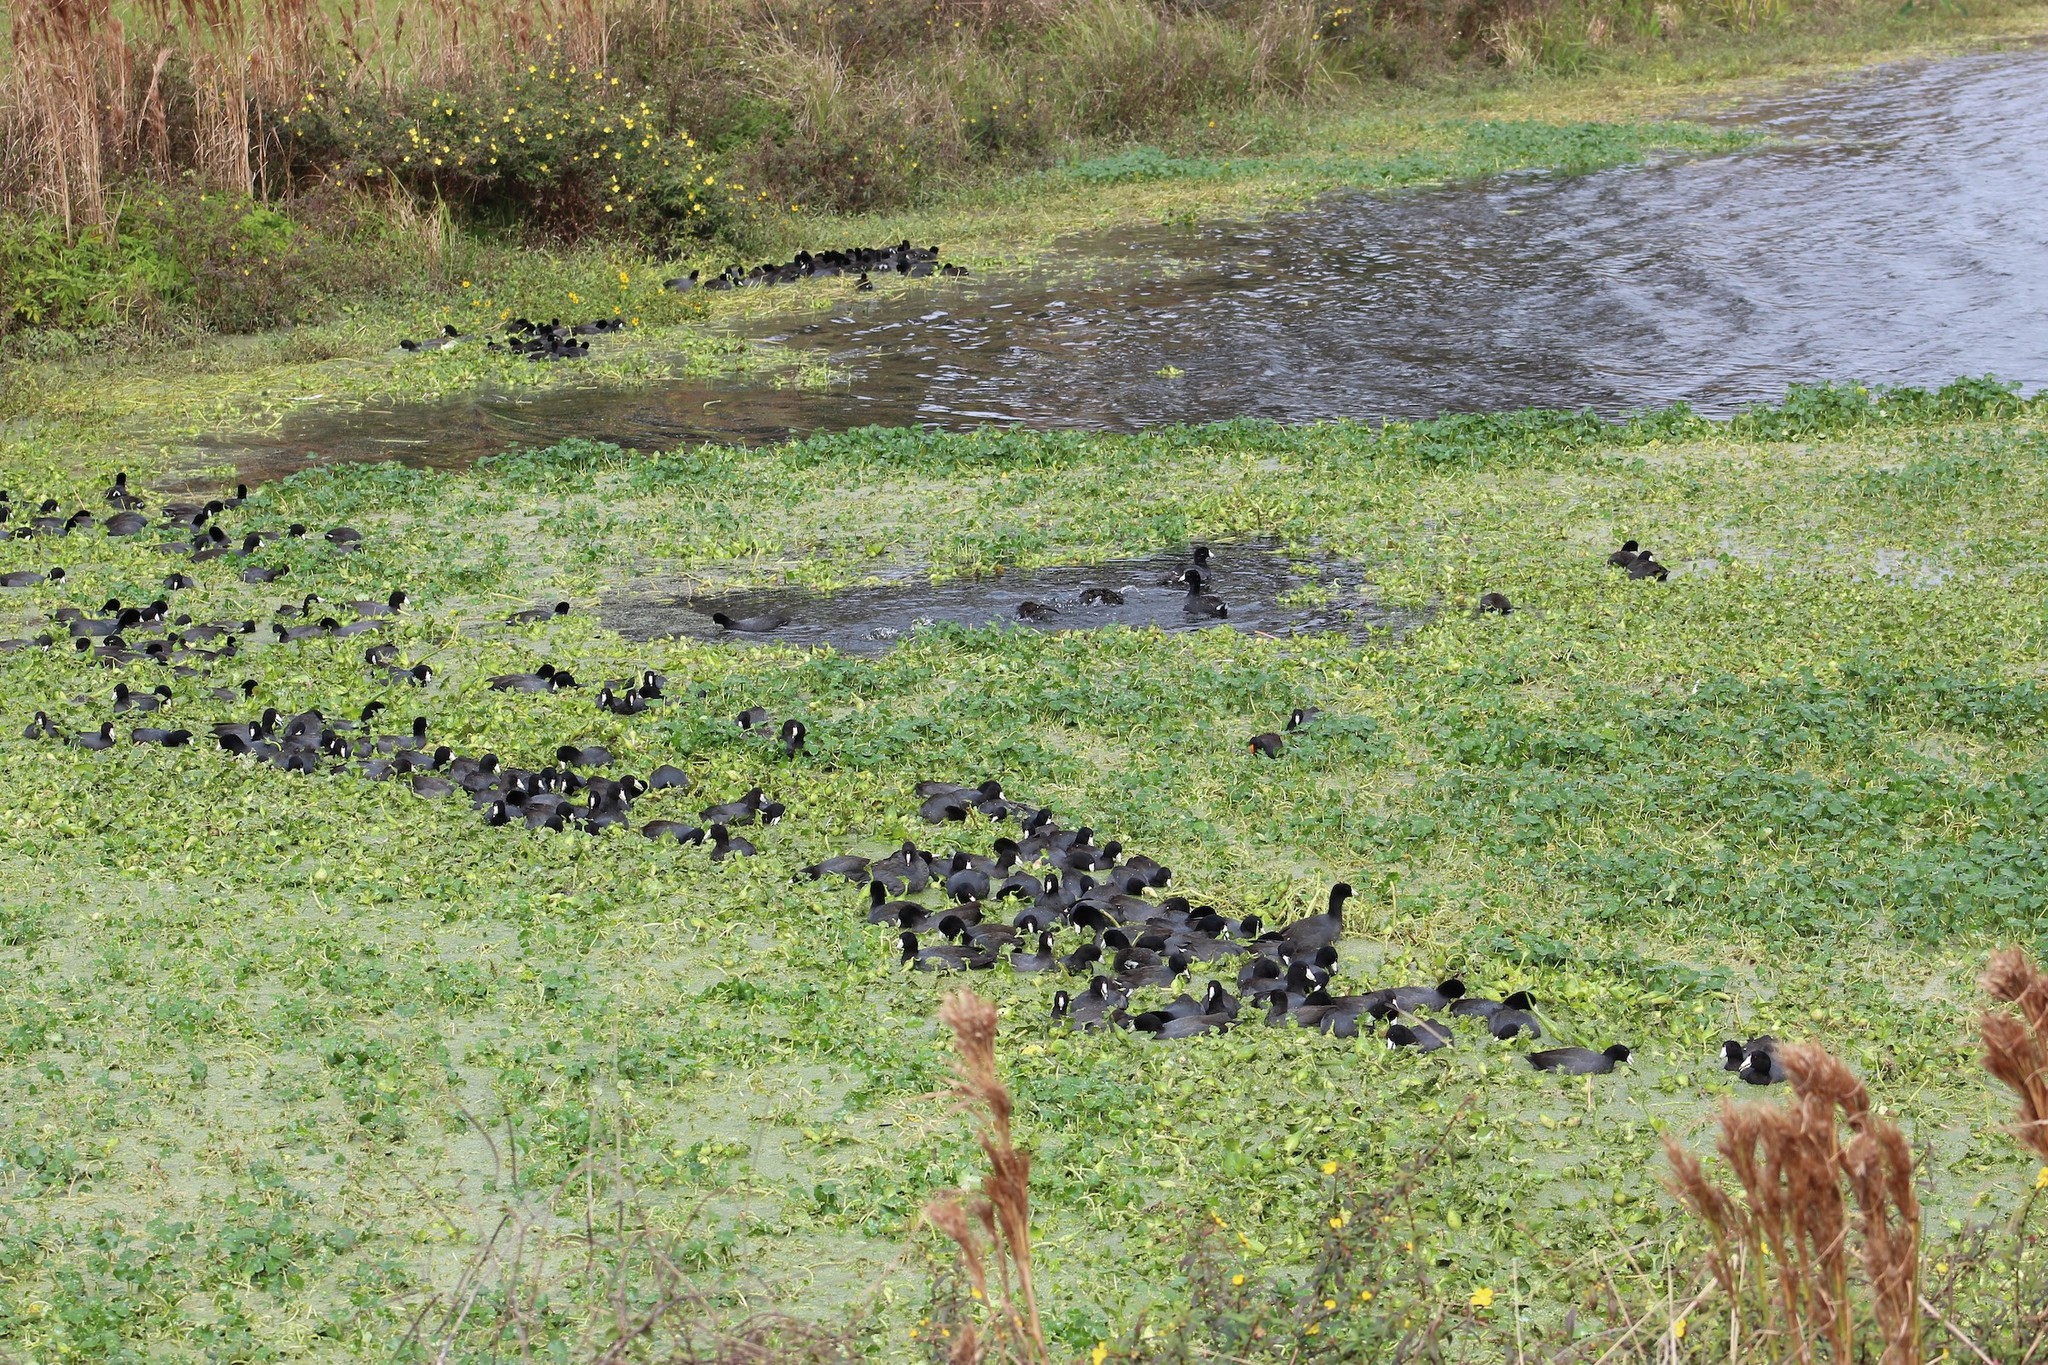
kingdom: Animalia
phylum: Chordata
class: Aves
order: Gruiformes
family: Rallidae
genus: Fulica
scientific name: Fulica americana
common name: American coot
